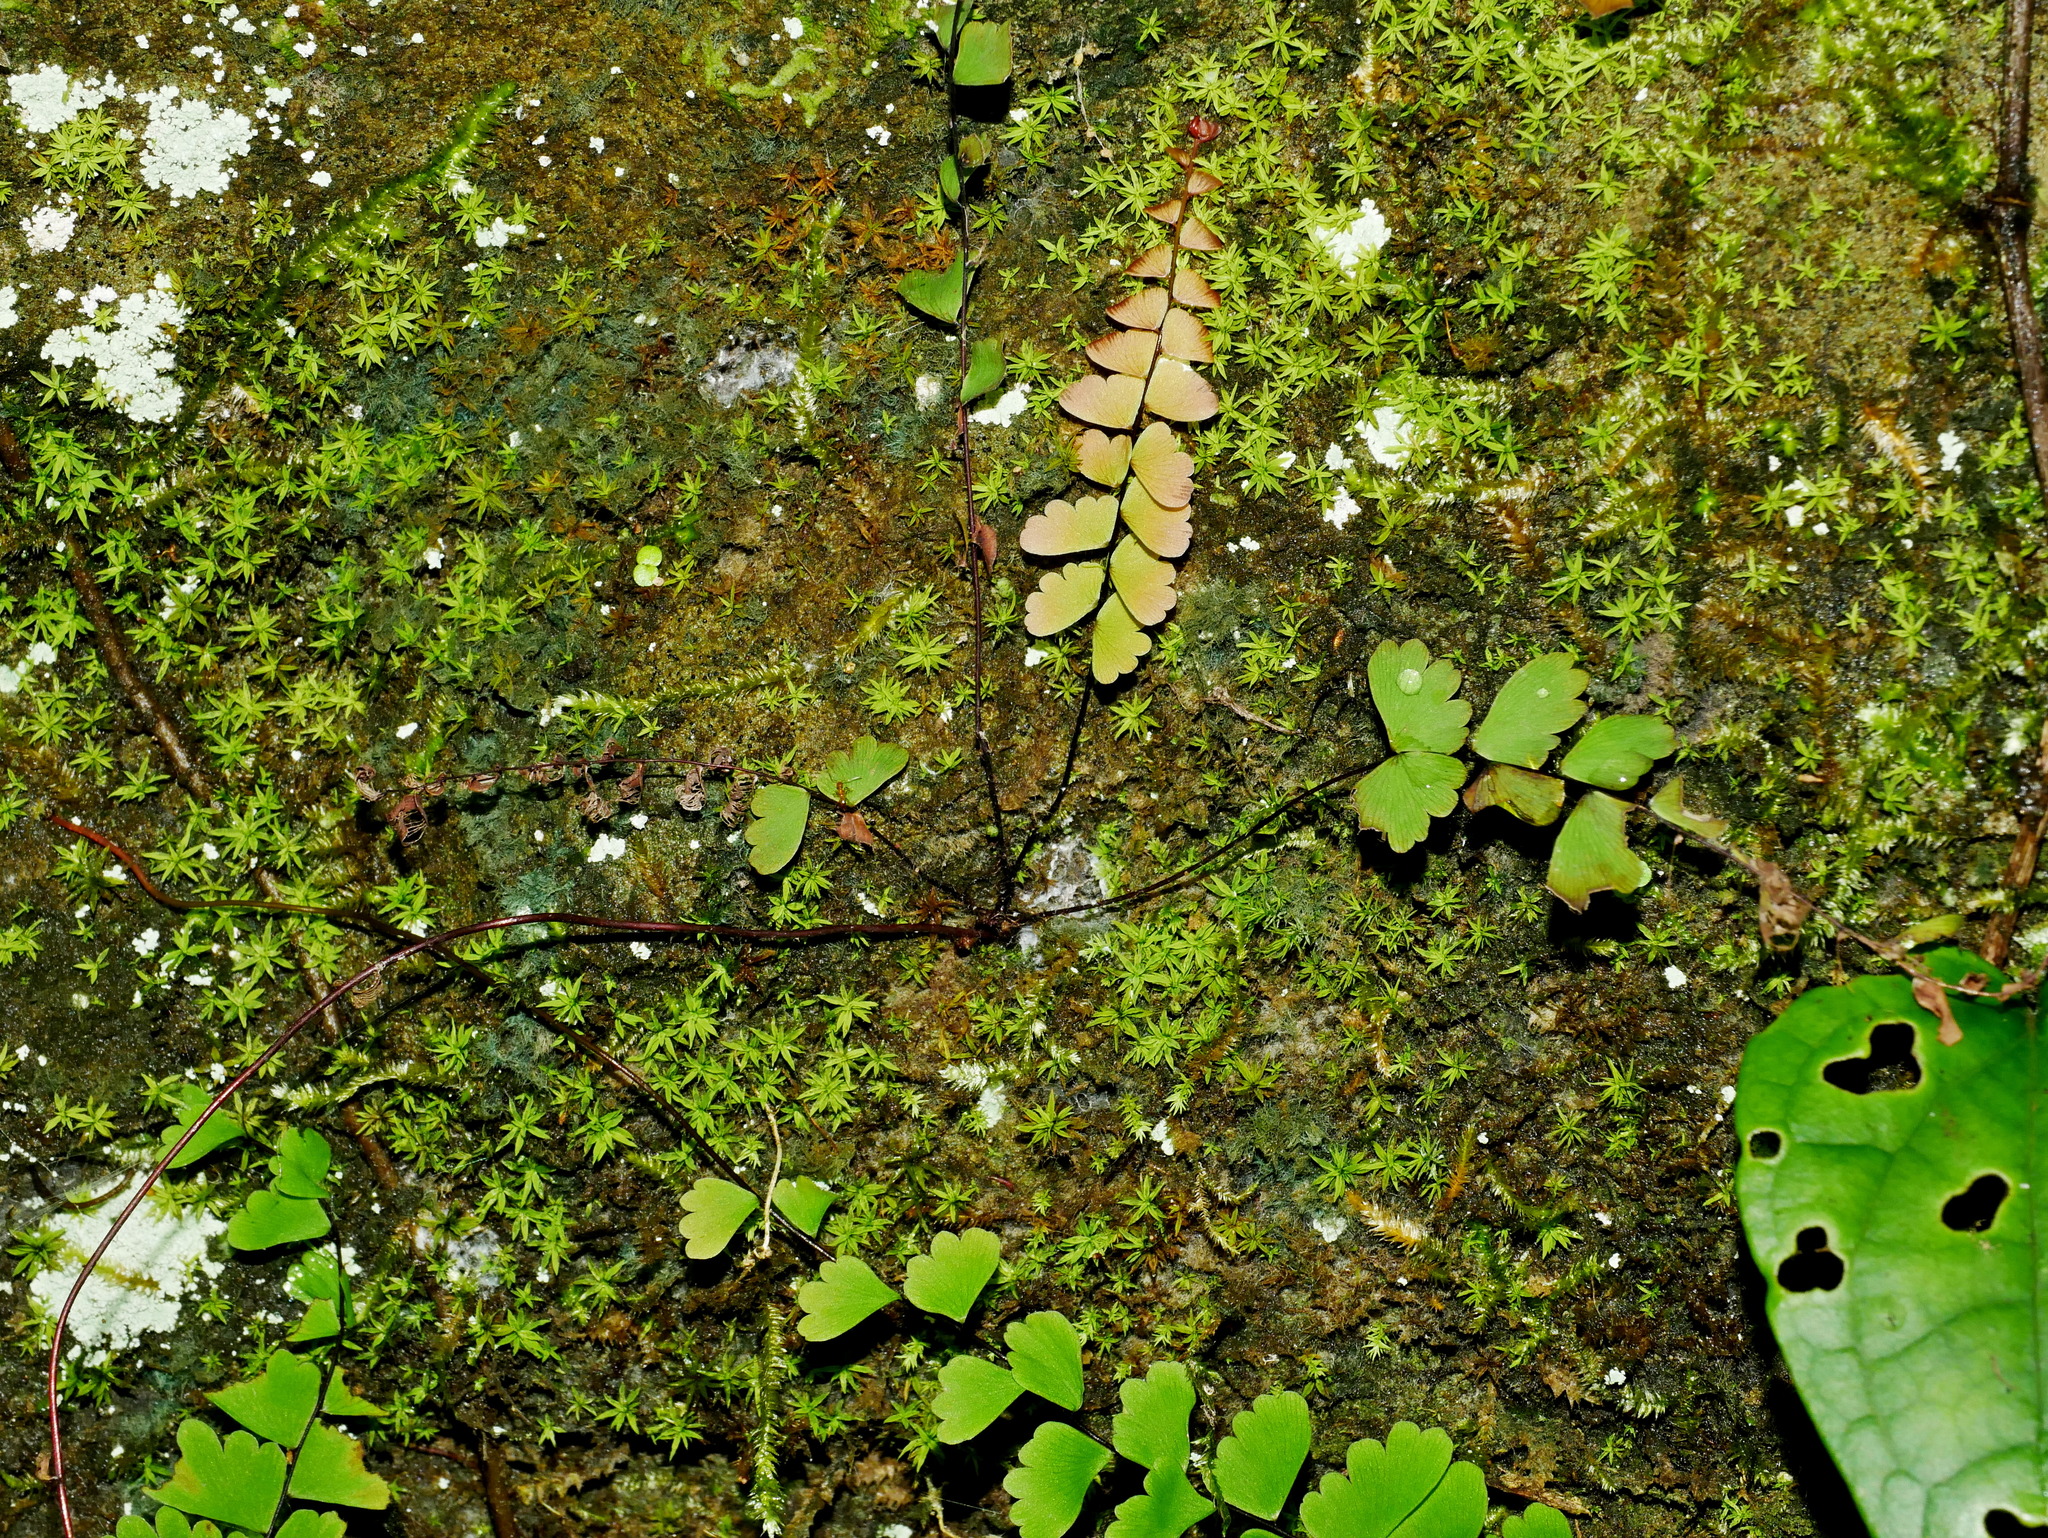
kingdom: Plantae
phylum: Tracheophyta
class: Polypodiopsida
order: Polypodiales
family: Pteridaceae
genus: Adiantum
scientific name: Adiantum edgeworthii
